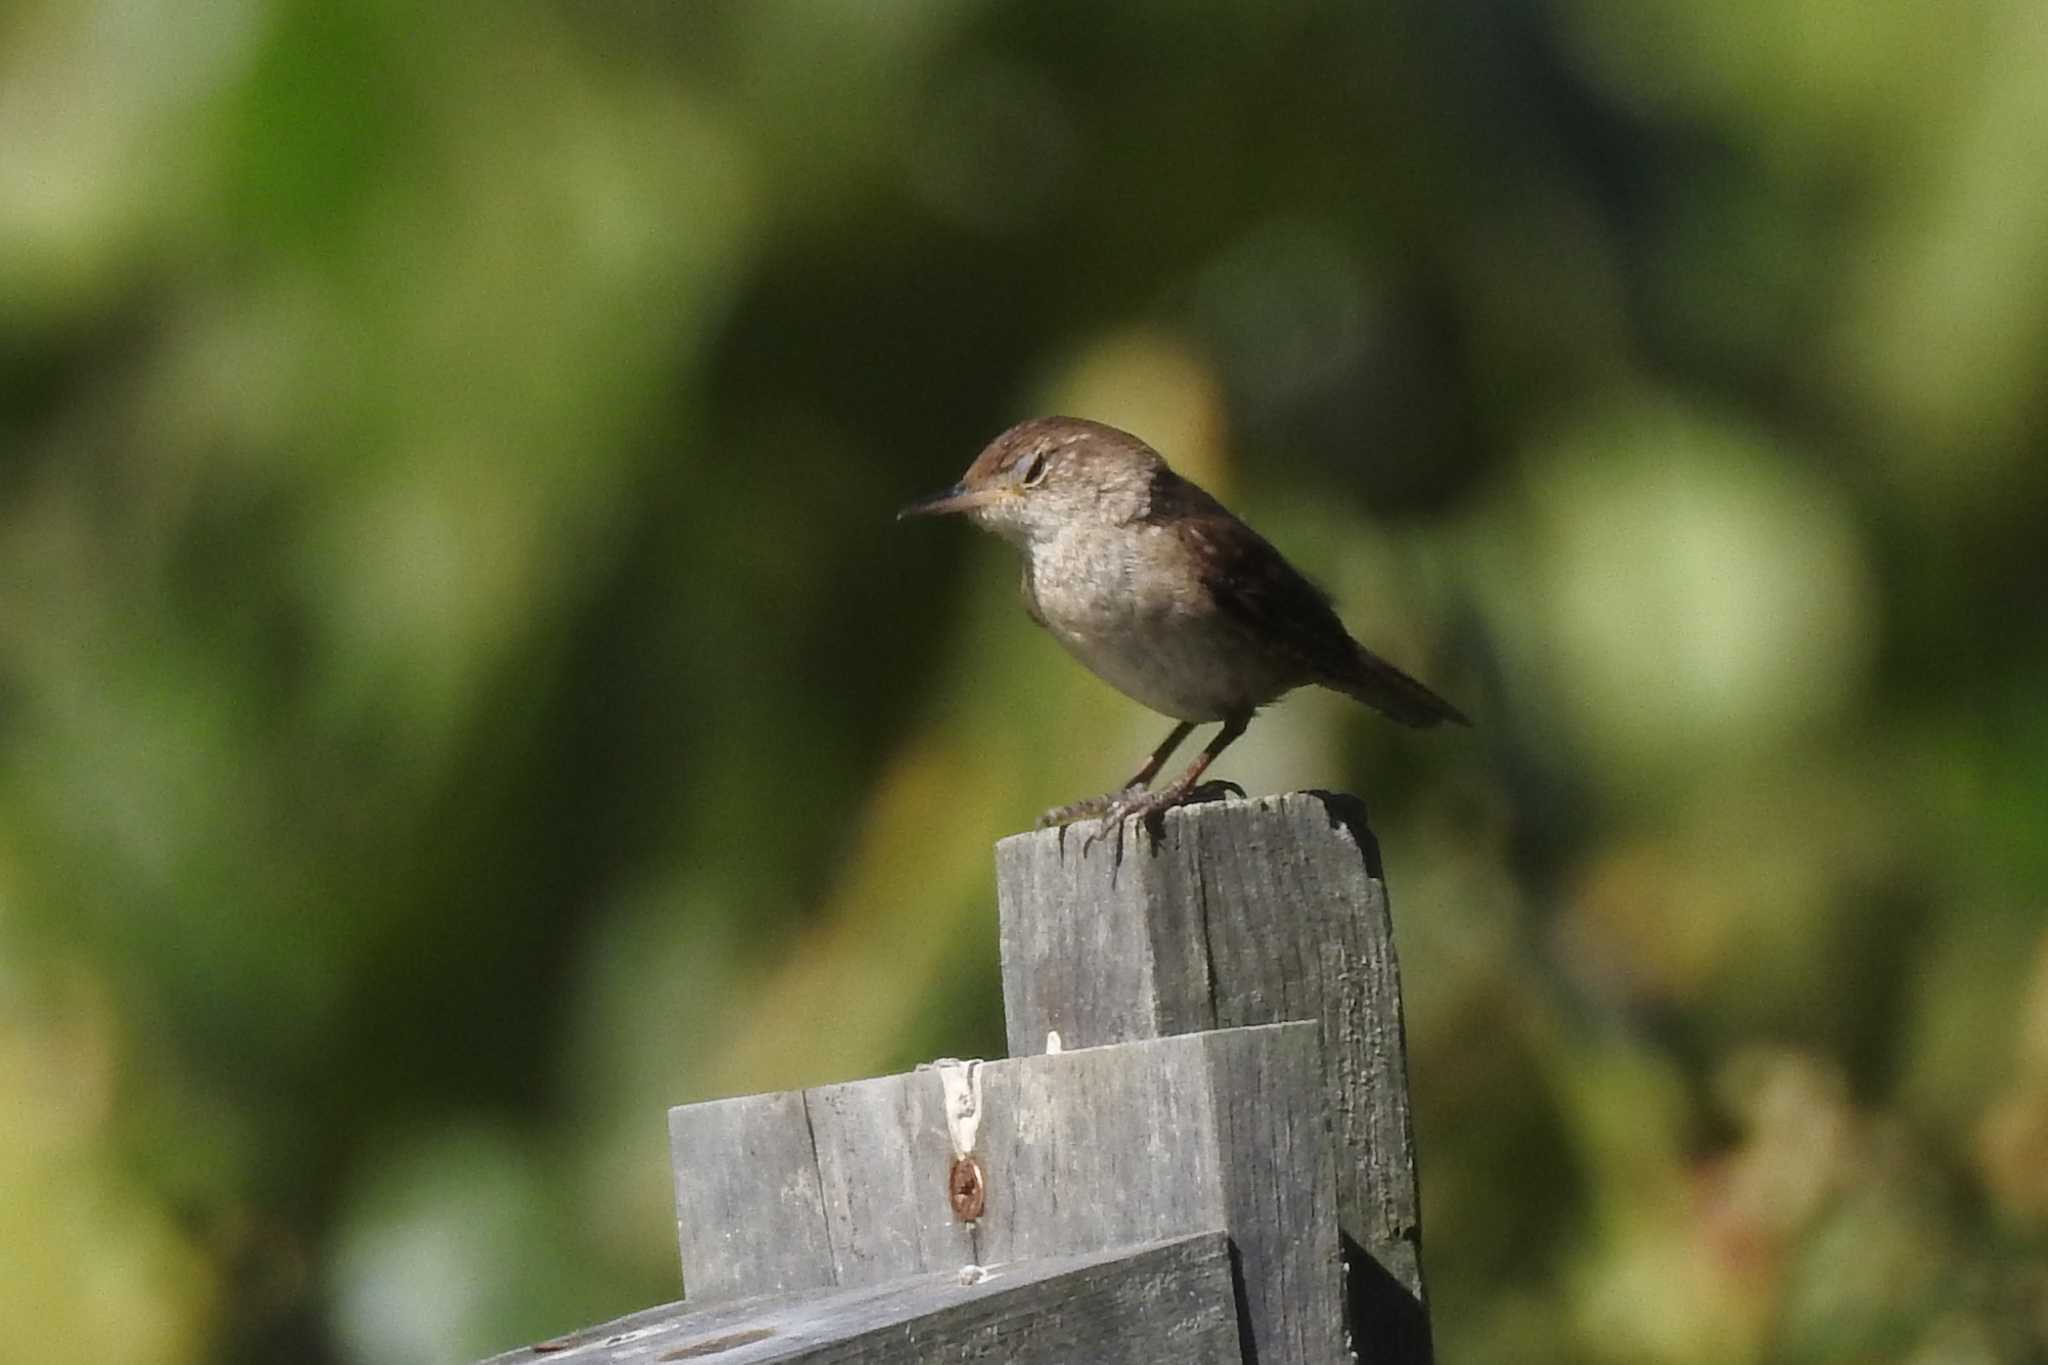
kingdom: Animalia
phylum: Chordata
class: Aves
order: Passeriformes
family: Troglodytidae
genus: Troglodytes
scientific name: Troglodytes aedon
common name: House wren
